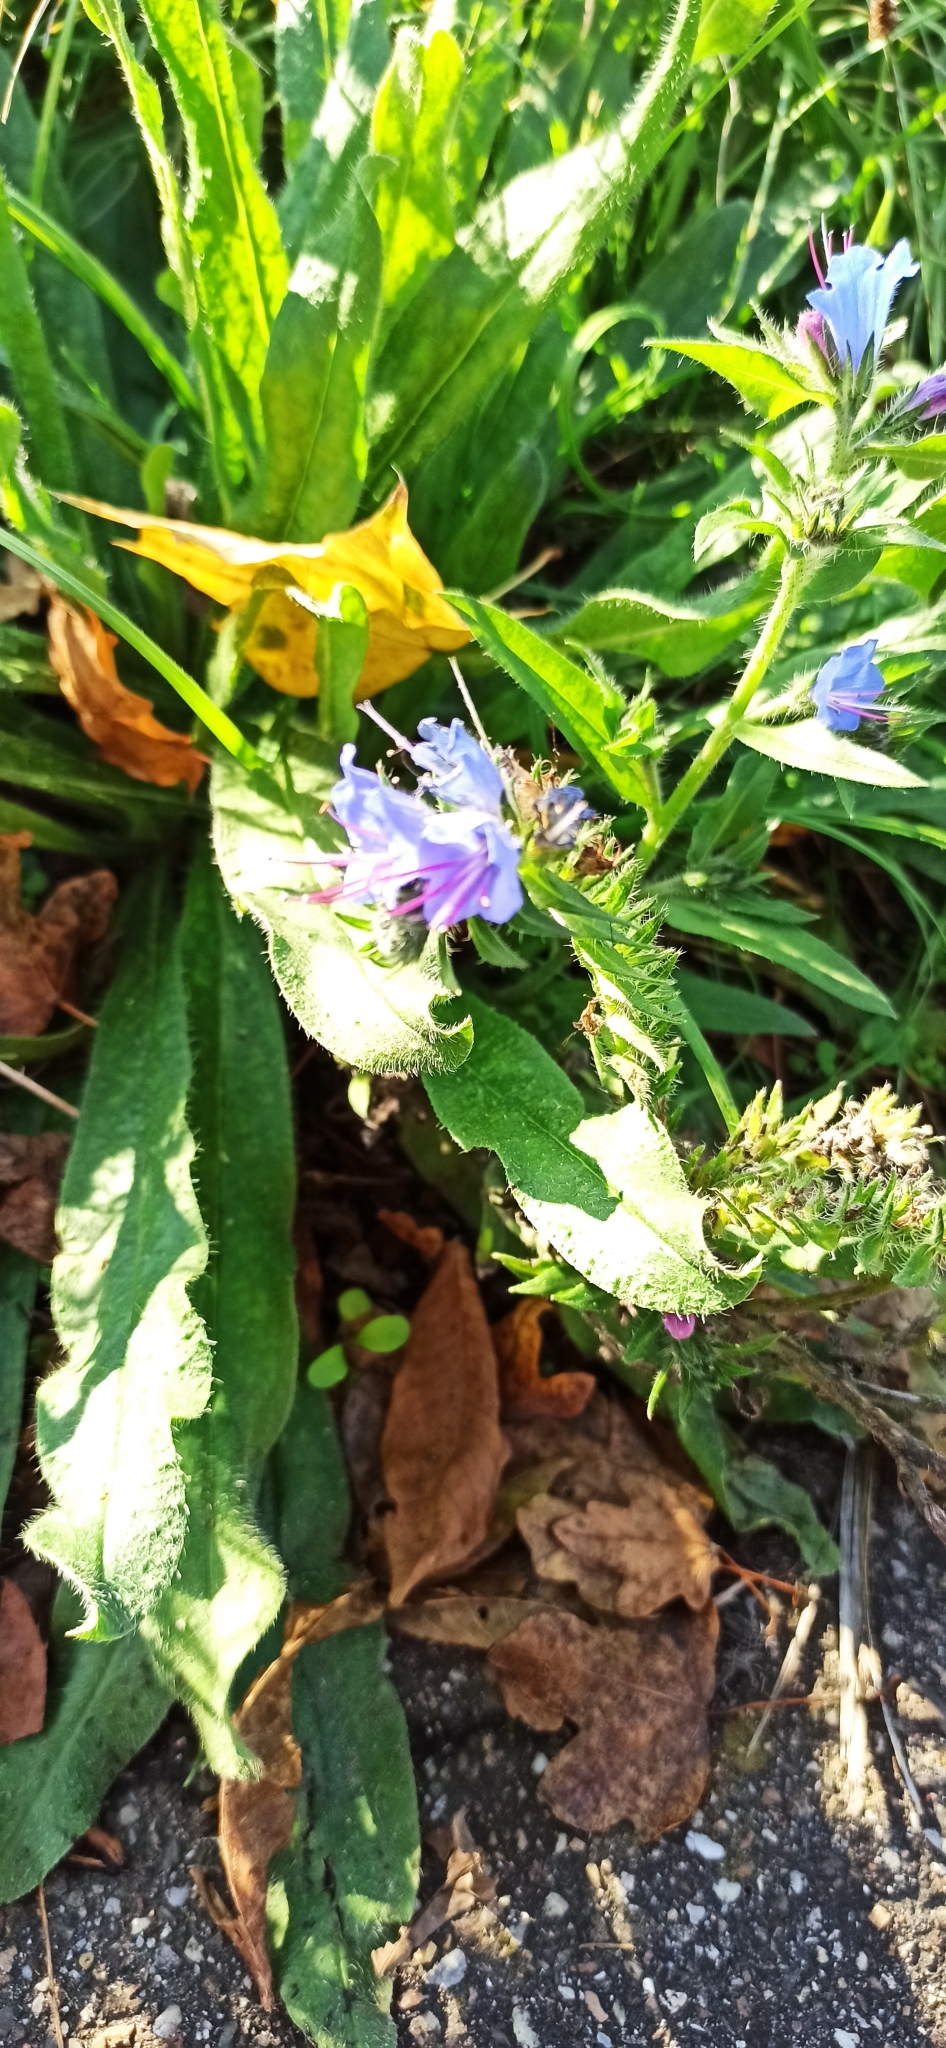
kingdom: Plantae
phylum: Tracheophyta
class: Magnoliopsida
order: Boraginales
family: Boraginaceae
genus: Echium
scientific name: Echium vulgare
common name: Common viper's bugloss
